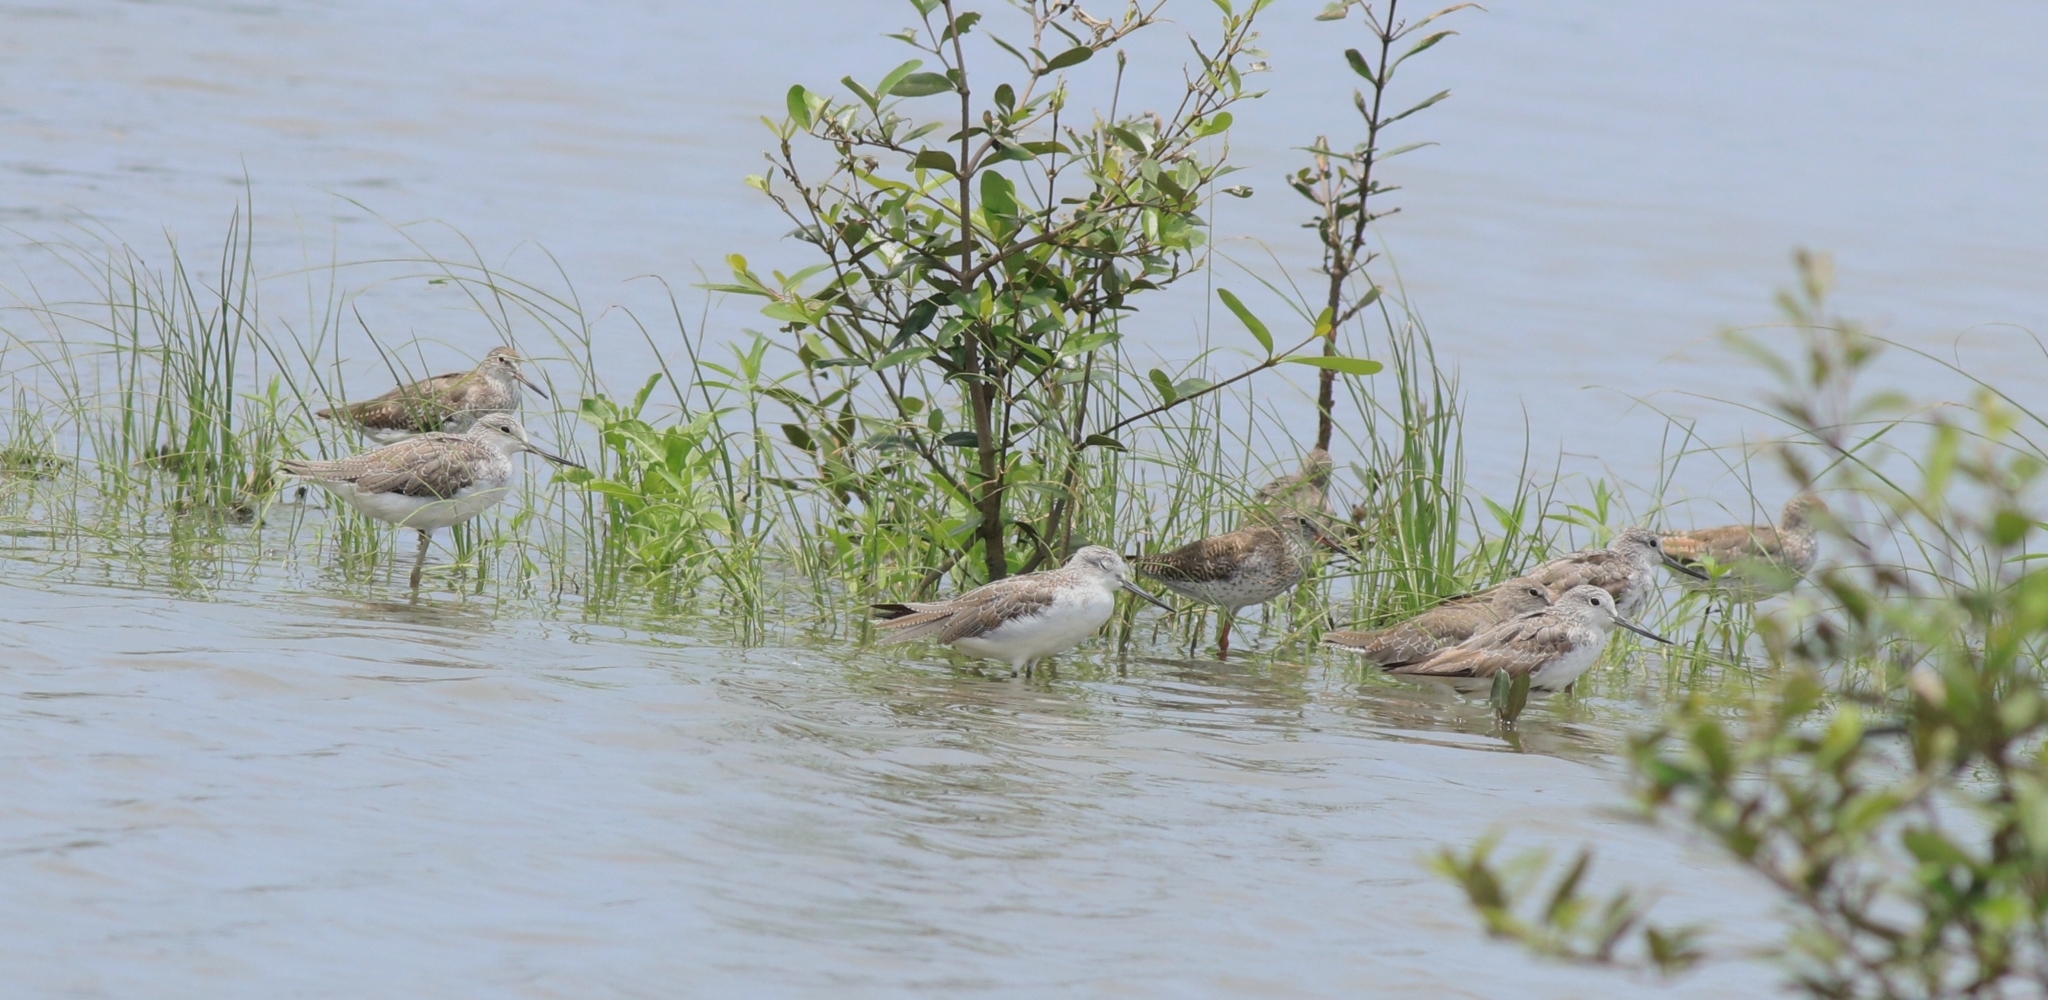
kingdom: Animalia
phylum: Chordata
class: Aves
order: Charadriiformes
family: Scolopacidae
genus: Tringa
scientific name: Tringa nebularia
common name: Common greenshank
